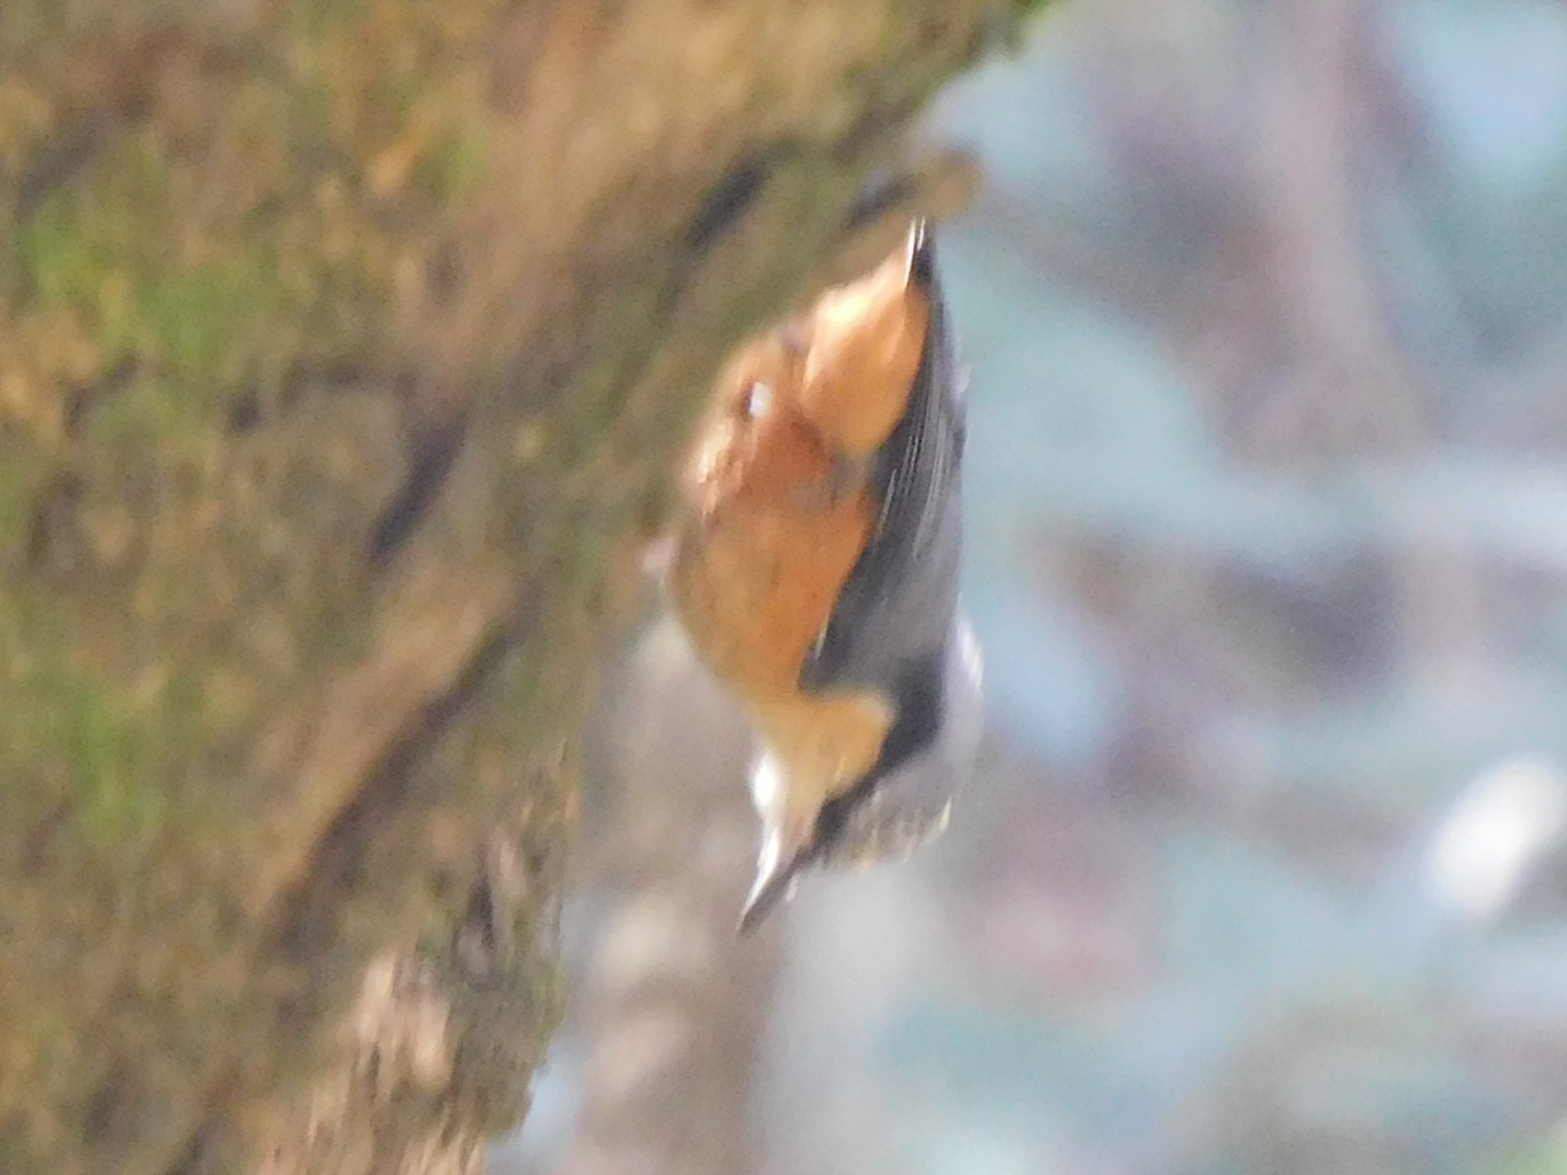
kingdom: Animalia
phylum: Chordata
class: Aves
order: Passeriformes
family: Sittidae
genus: Sitta
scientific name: Sitta himalayensis
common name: White-tailed nuthatch
